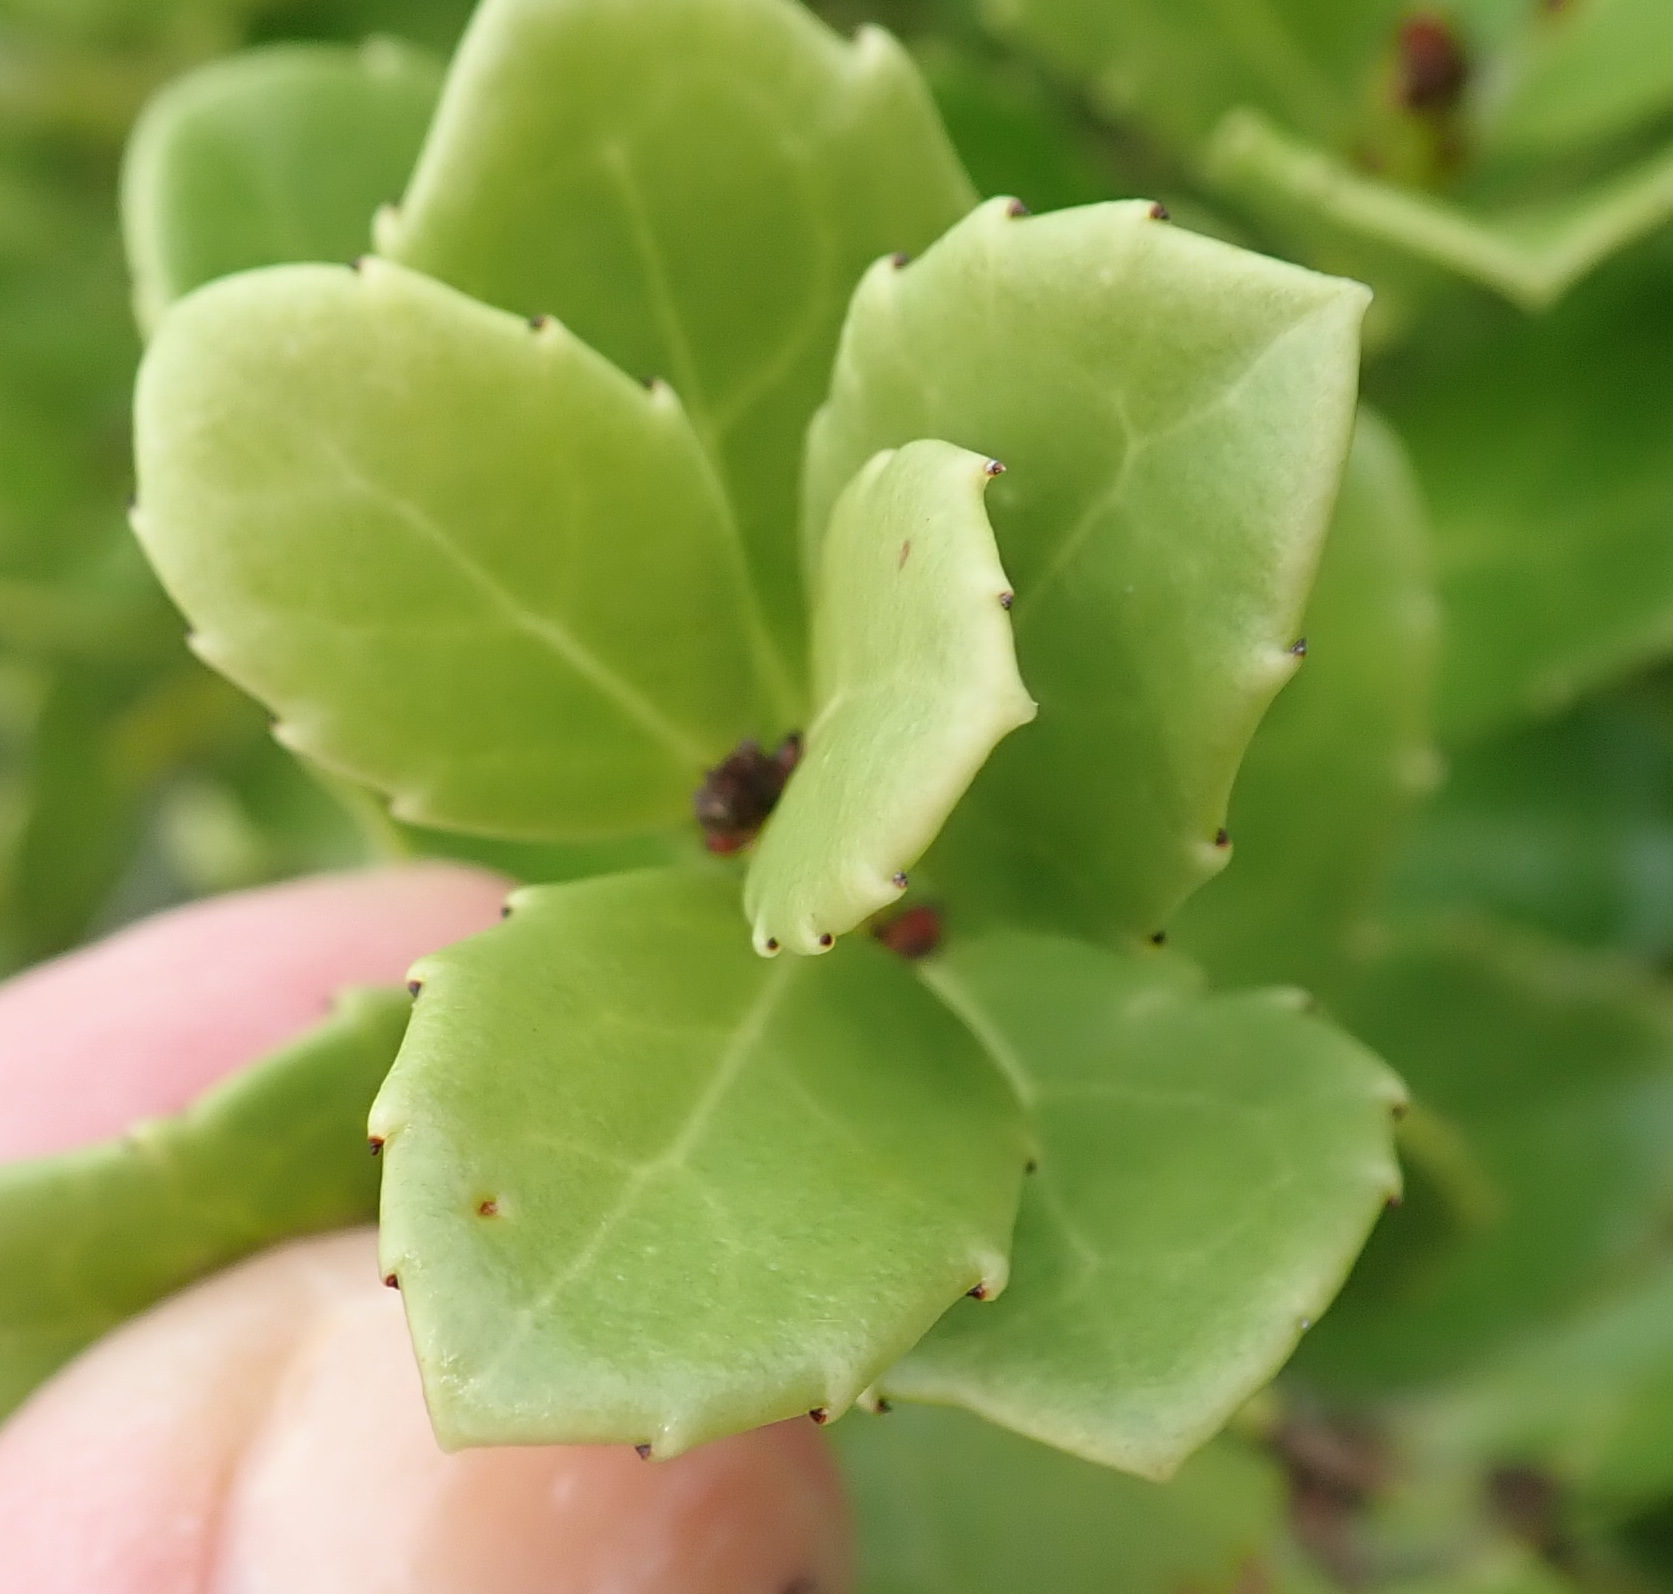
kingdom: Plantae
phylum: Tracheophyta
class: Magnoliopsida
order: Celastrales
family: Celastraceae
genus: Gymnosporia
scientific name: Gymnosporia procumbens
